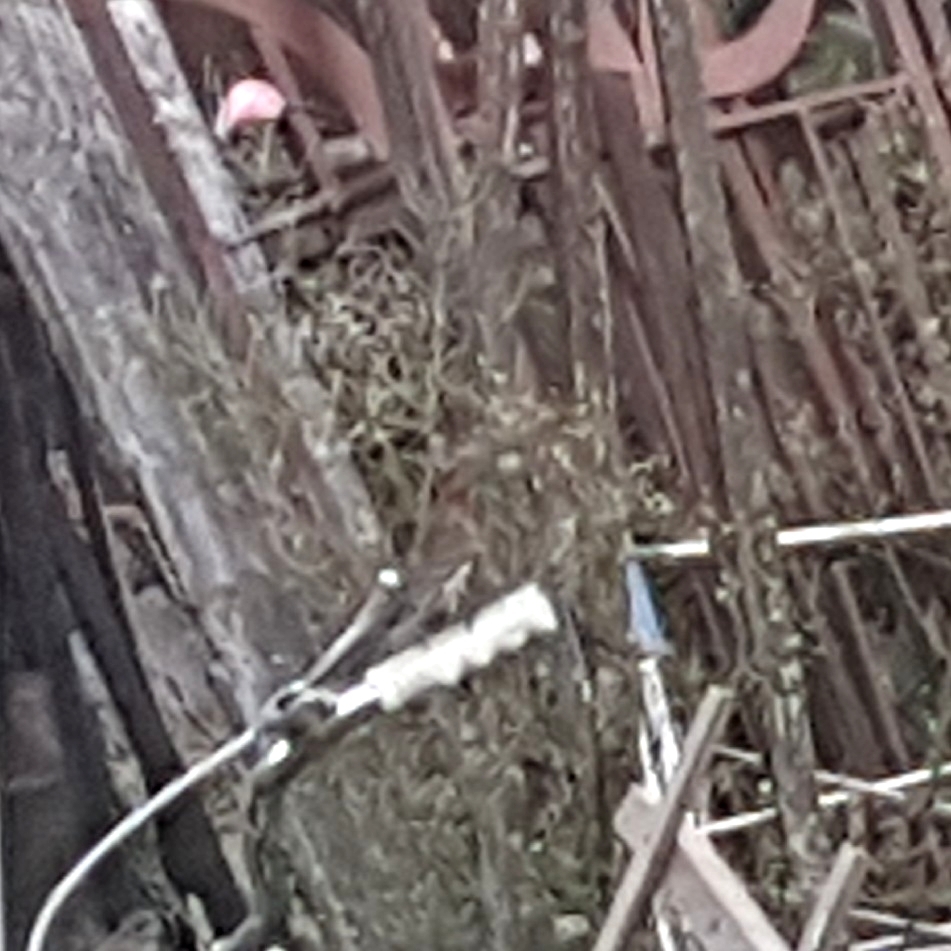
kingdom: Animalia
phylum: Chordata
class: Aves
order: Passeriformes
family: Fringillidae
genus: Haemorhous
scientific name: Haemorhous mexicanus
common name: House finch
